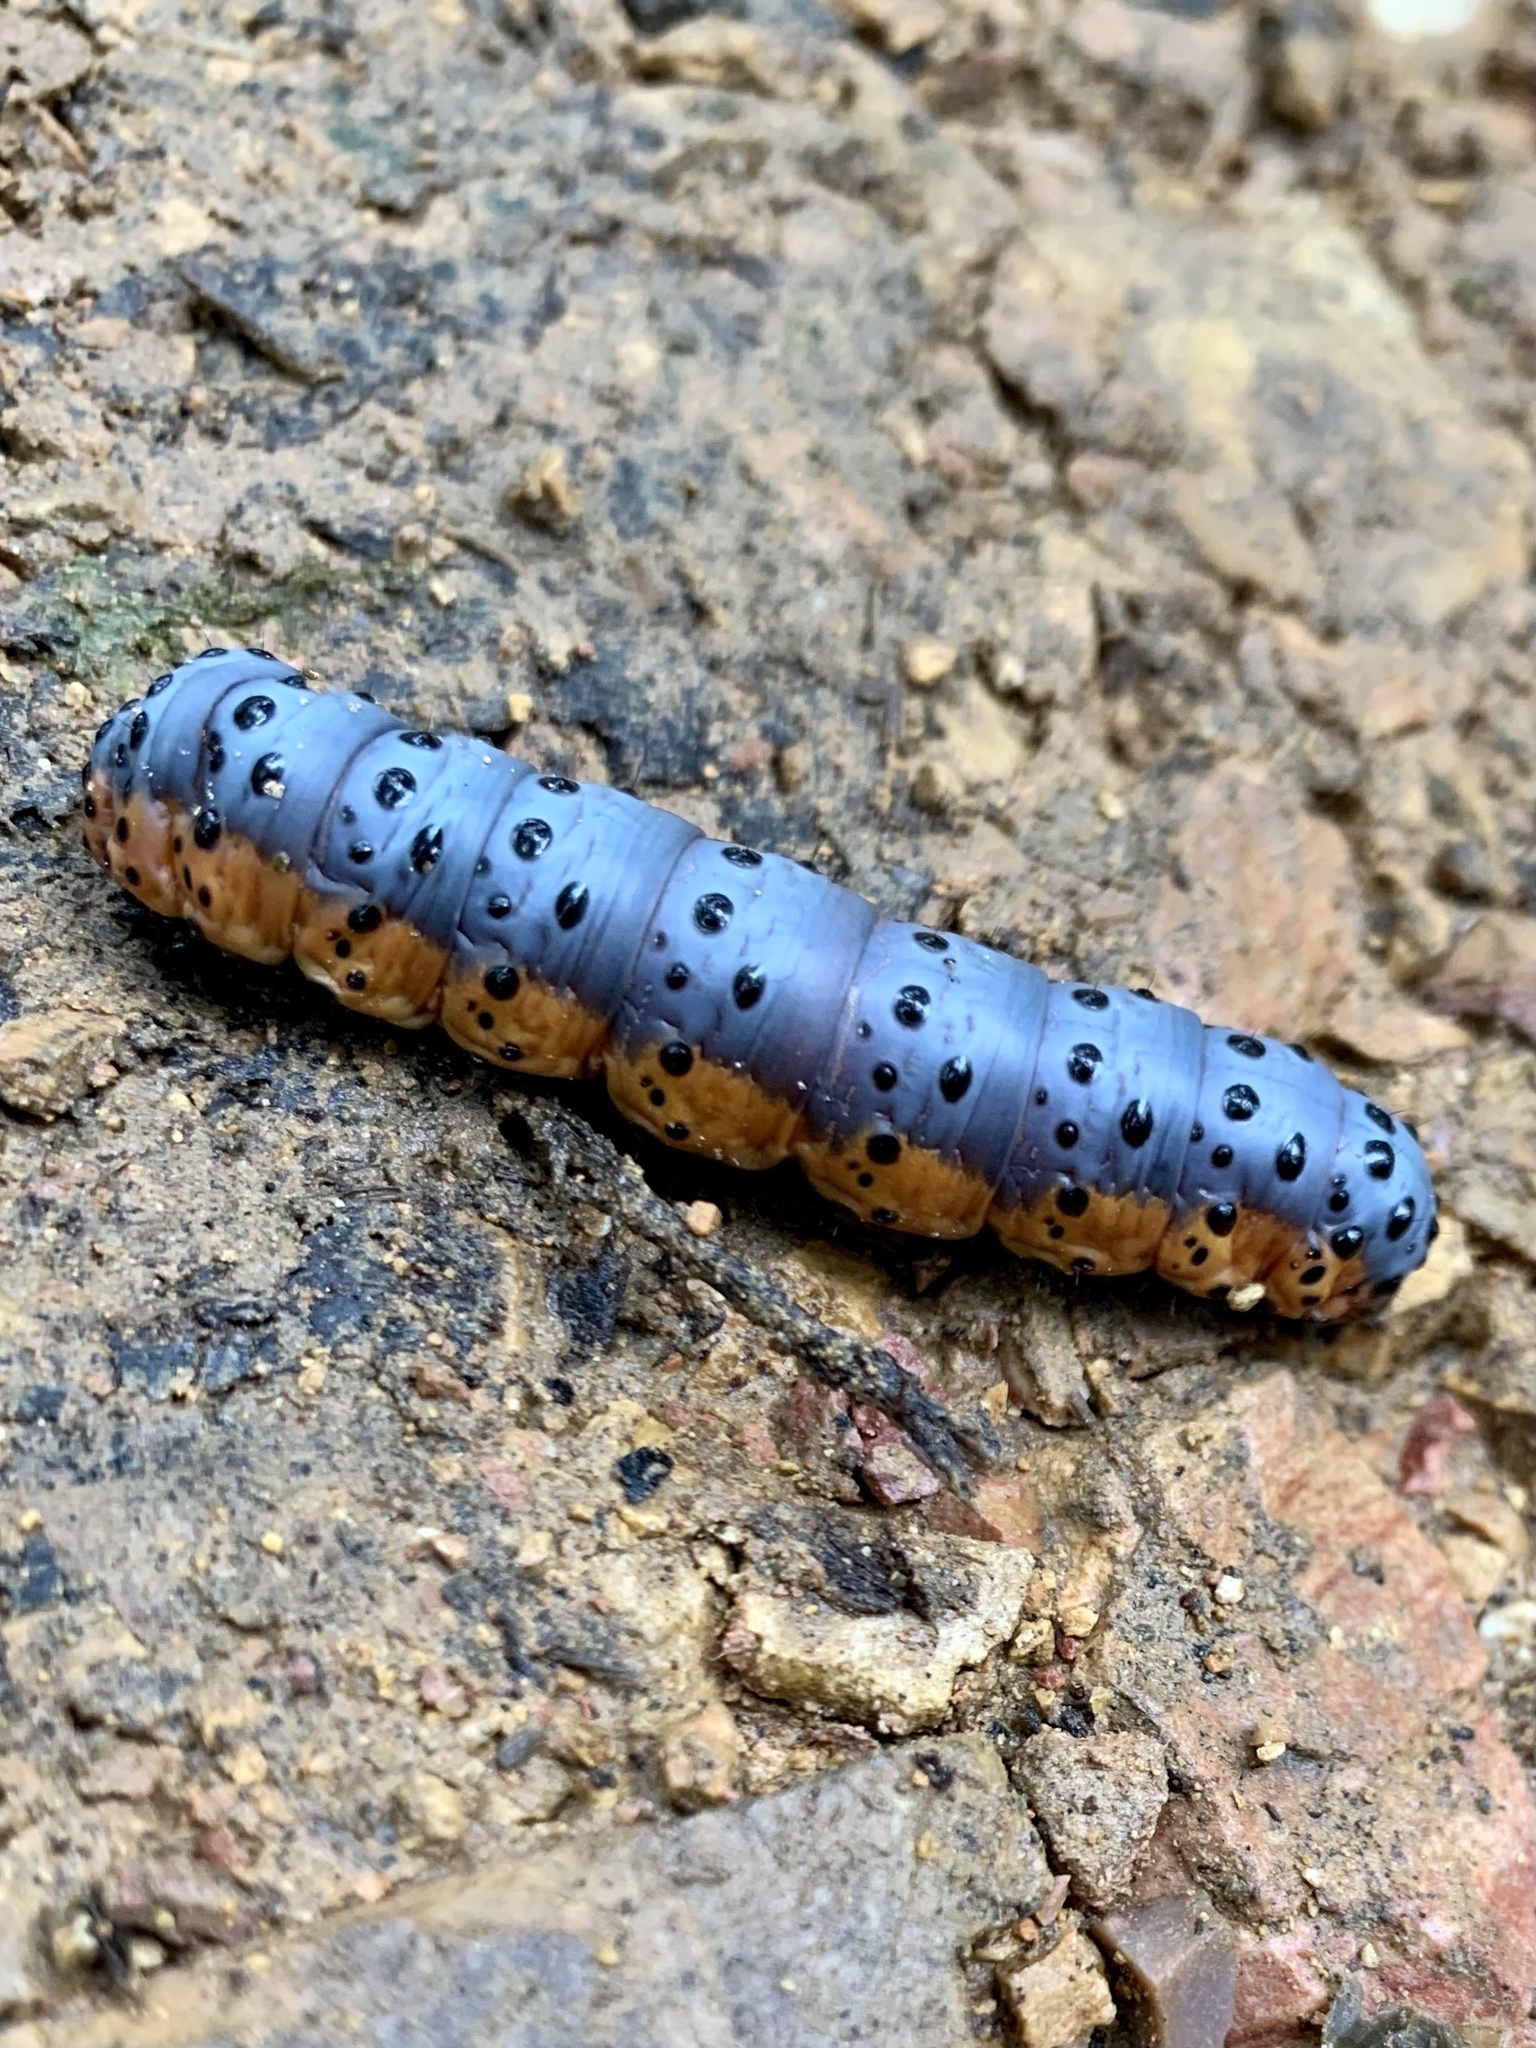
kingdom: Animalia
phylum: Arthropoda
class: Insecta
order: Lepidoptera
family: Notodontidae
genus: Lobeza
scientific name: Lobeza medina
